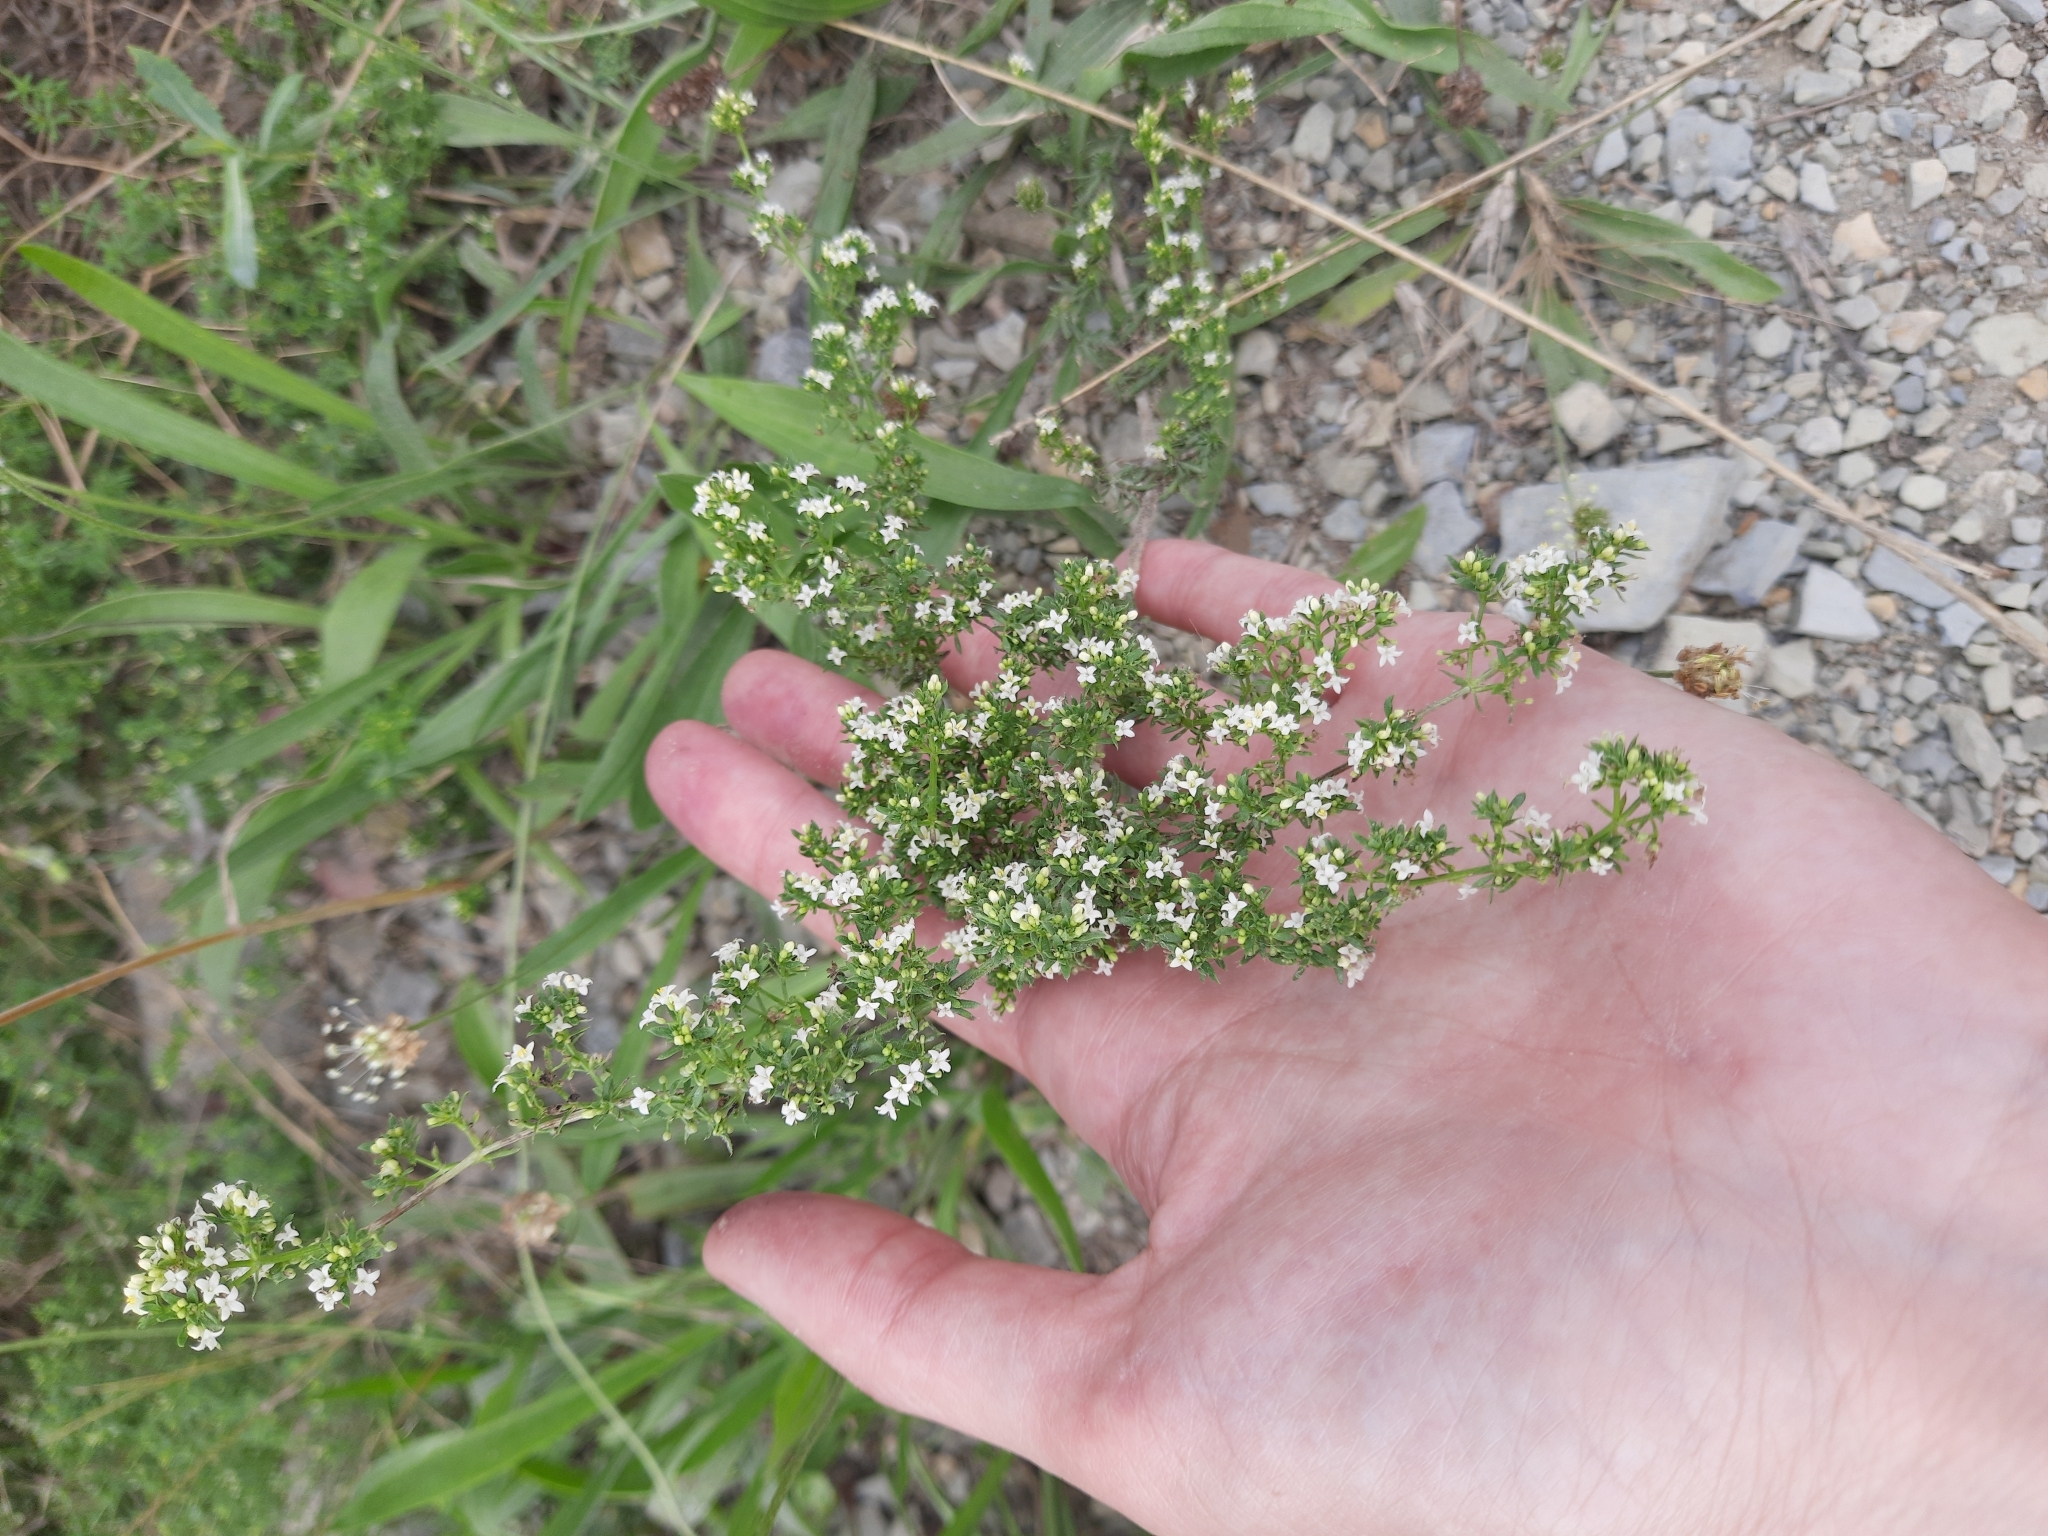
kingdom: Plantae
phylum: Tracheophyta
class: Magnoliopsida
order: Gentianales
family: Rubiaceae
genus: Galium
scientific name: Galium humifusum
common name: Spreading bedstraw
